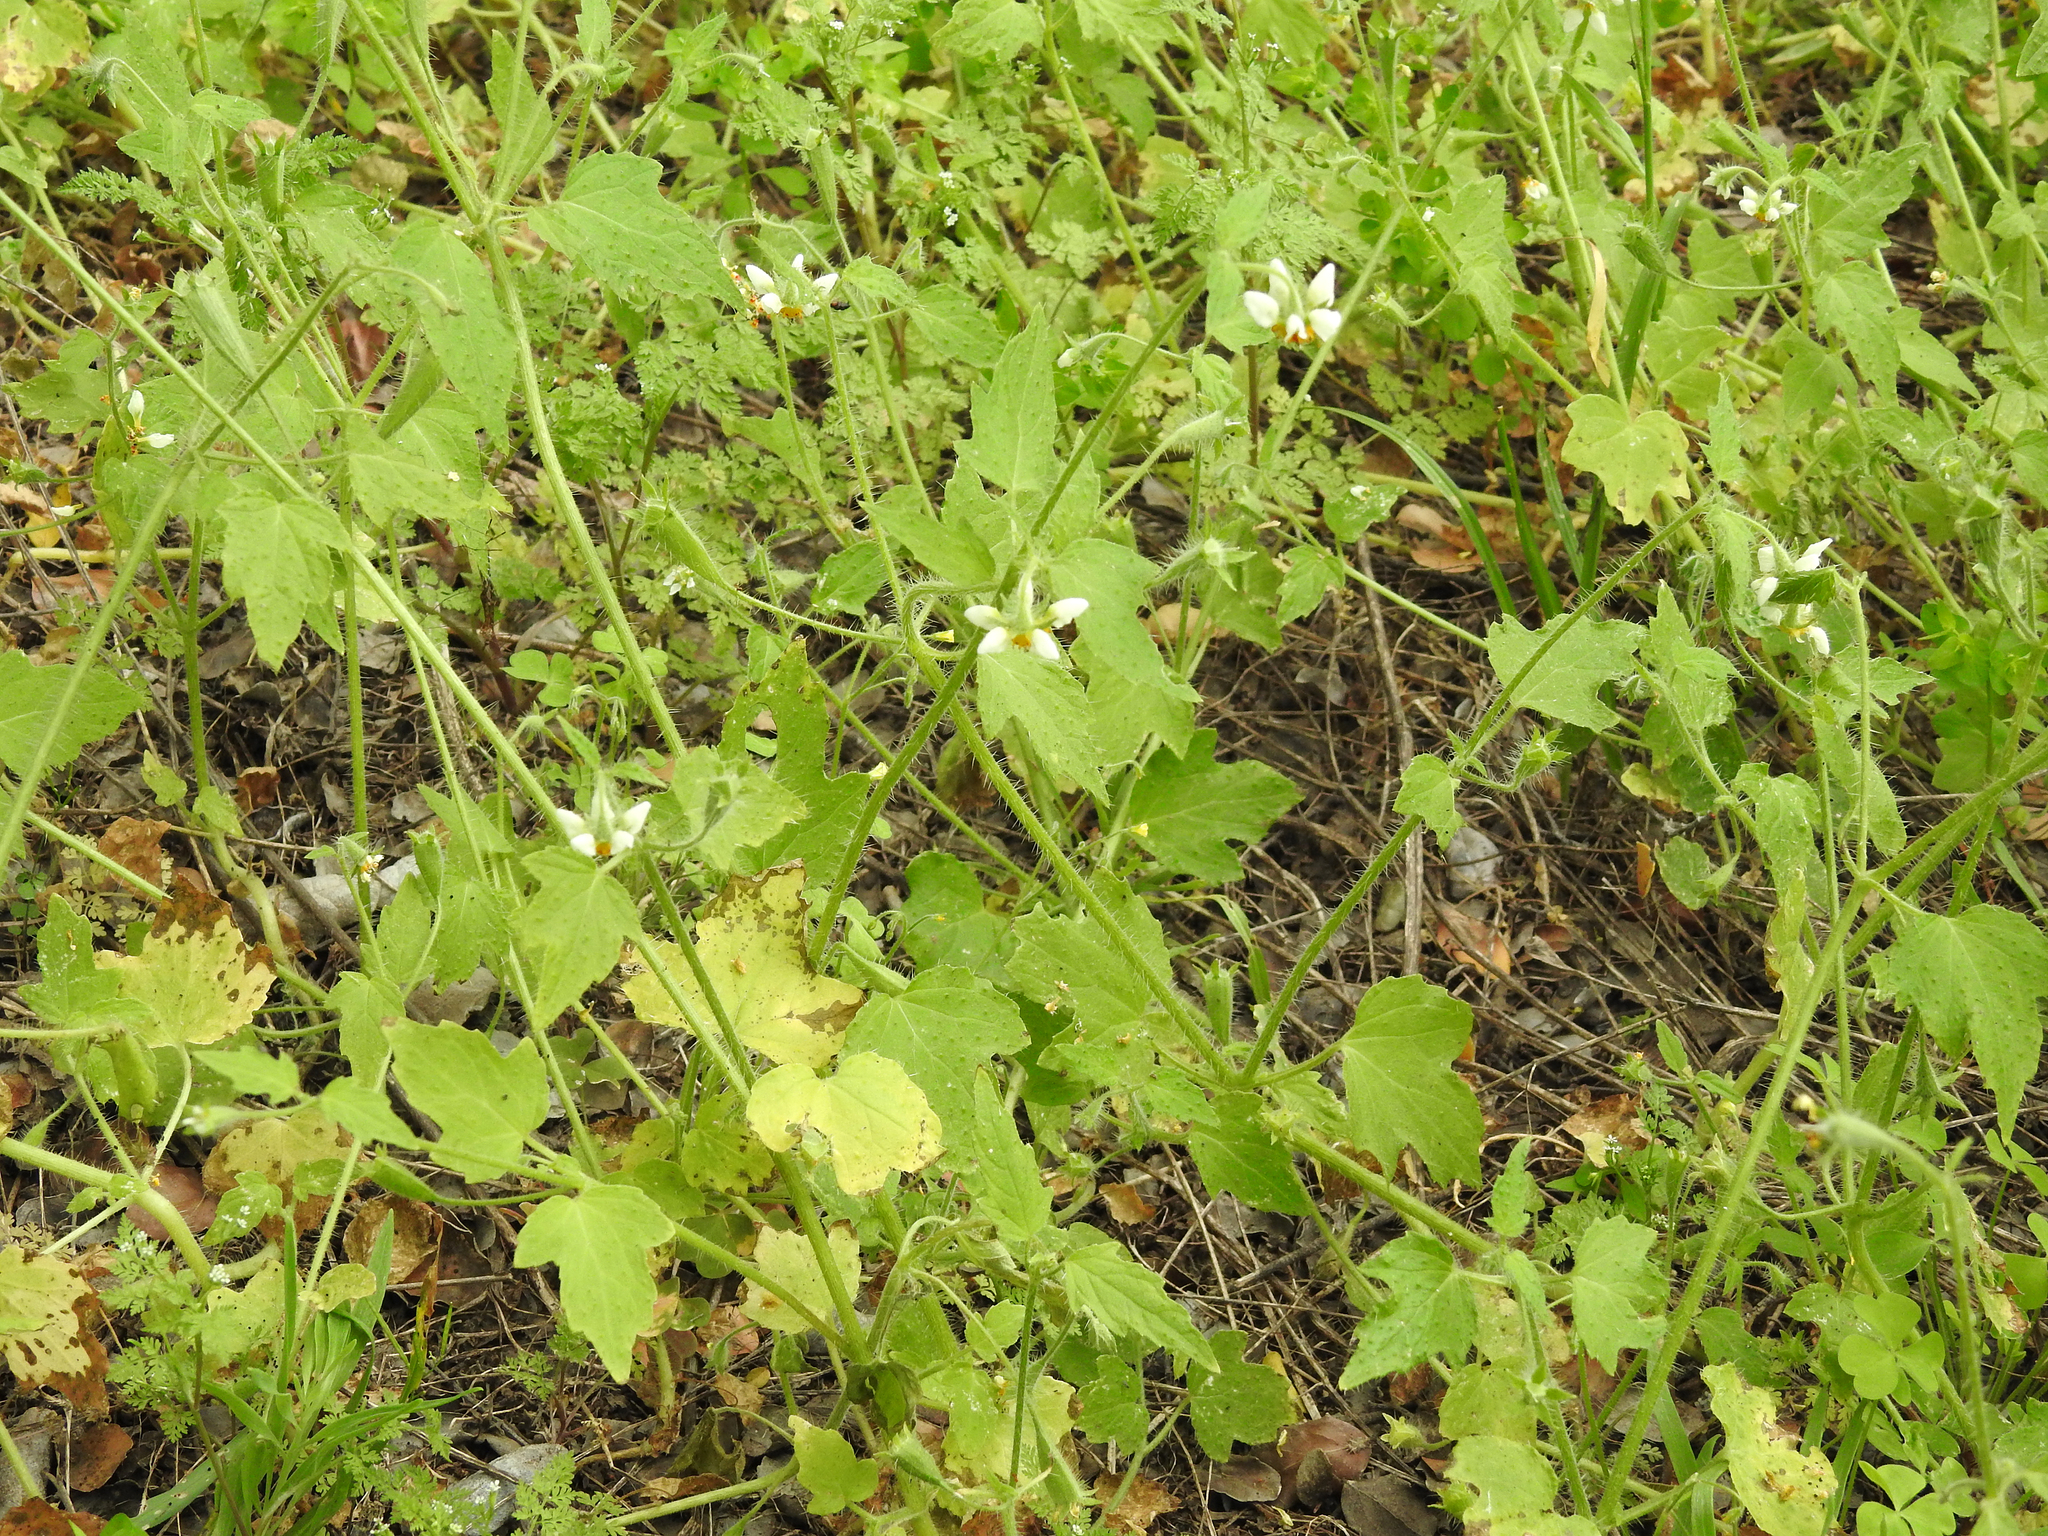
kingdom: Plantae
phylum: Tracheophyta
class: Magnoliopsida
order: Cornales
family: Loasaceae
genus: Loasa
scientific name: Loasa triloba
